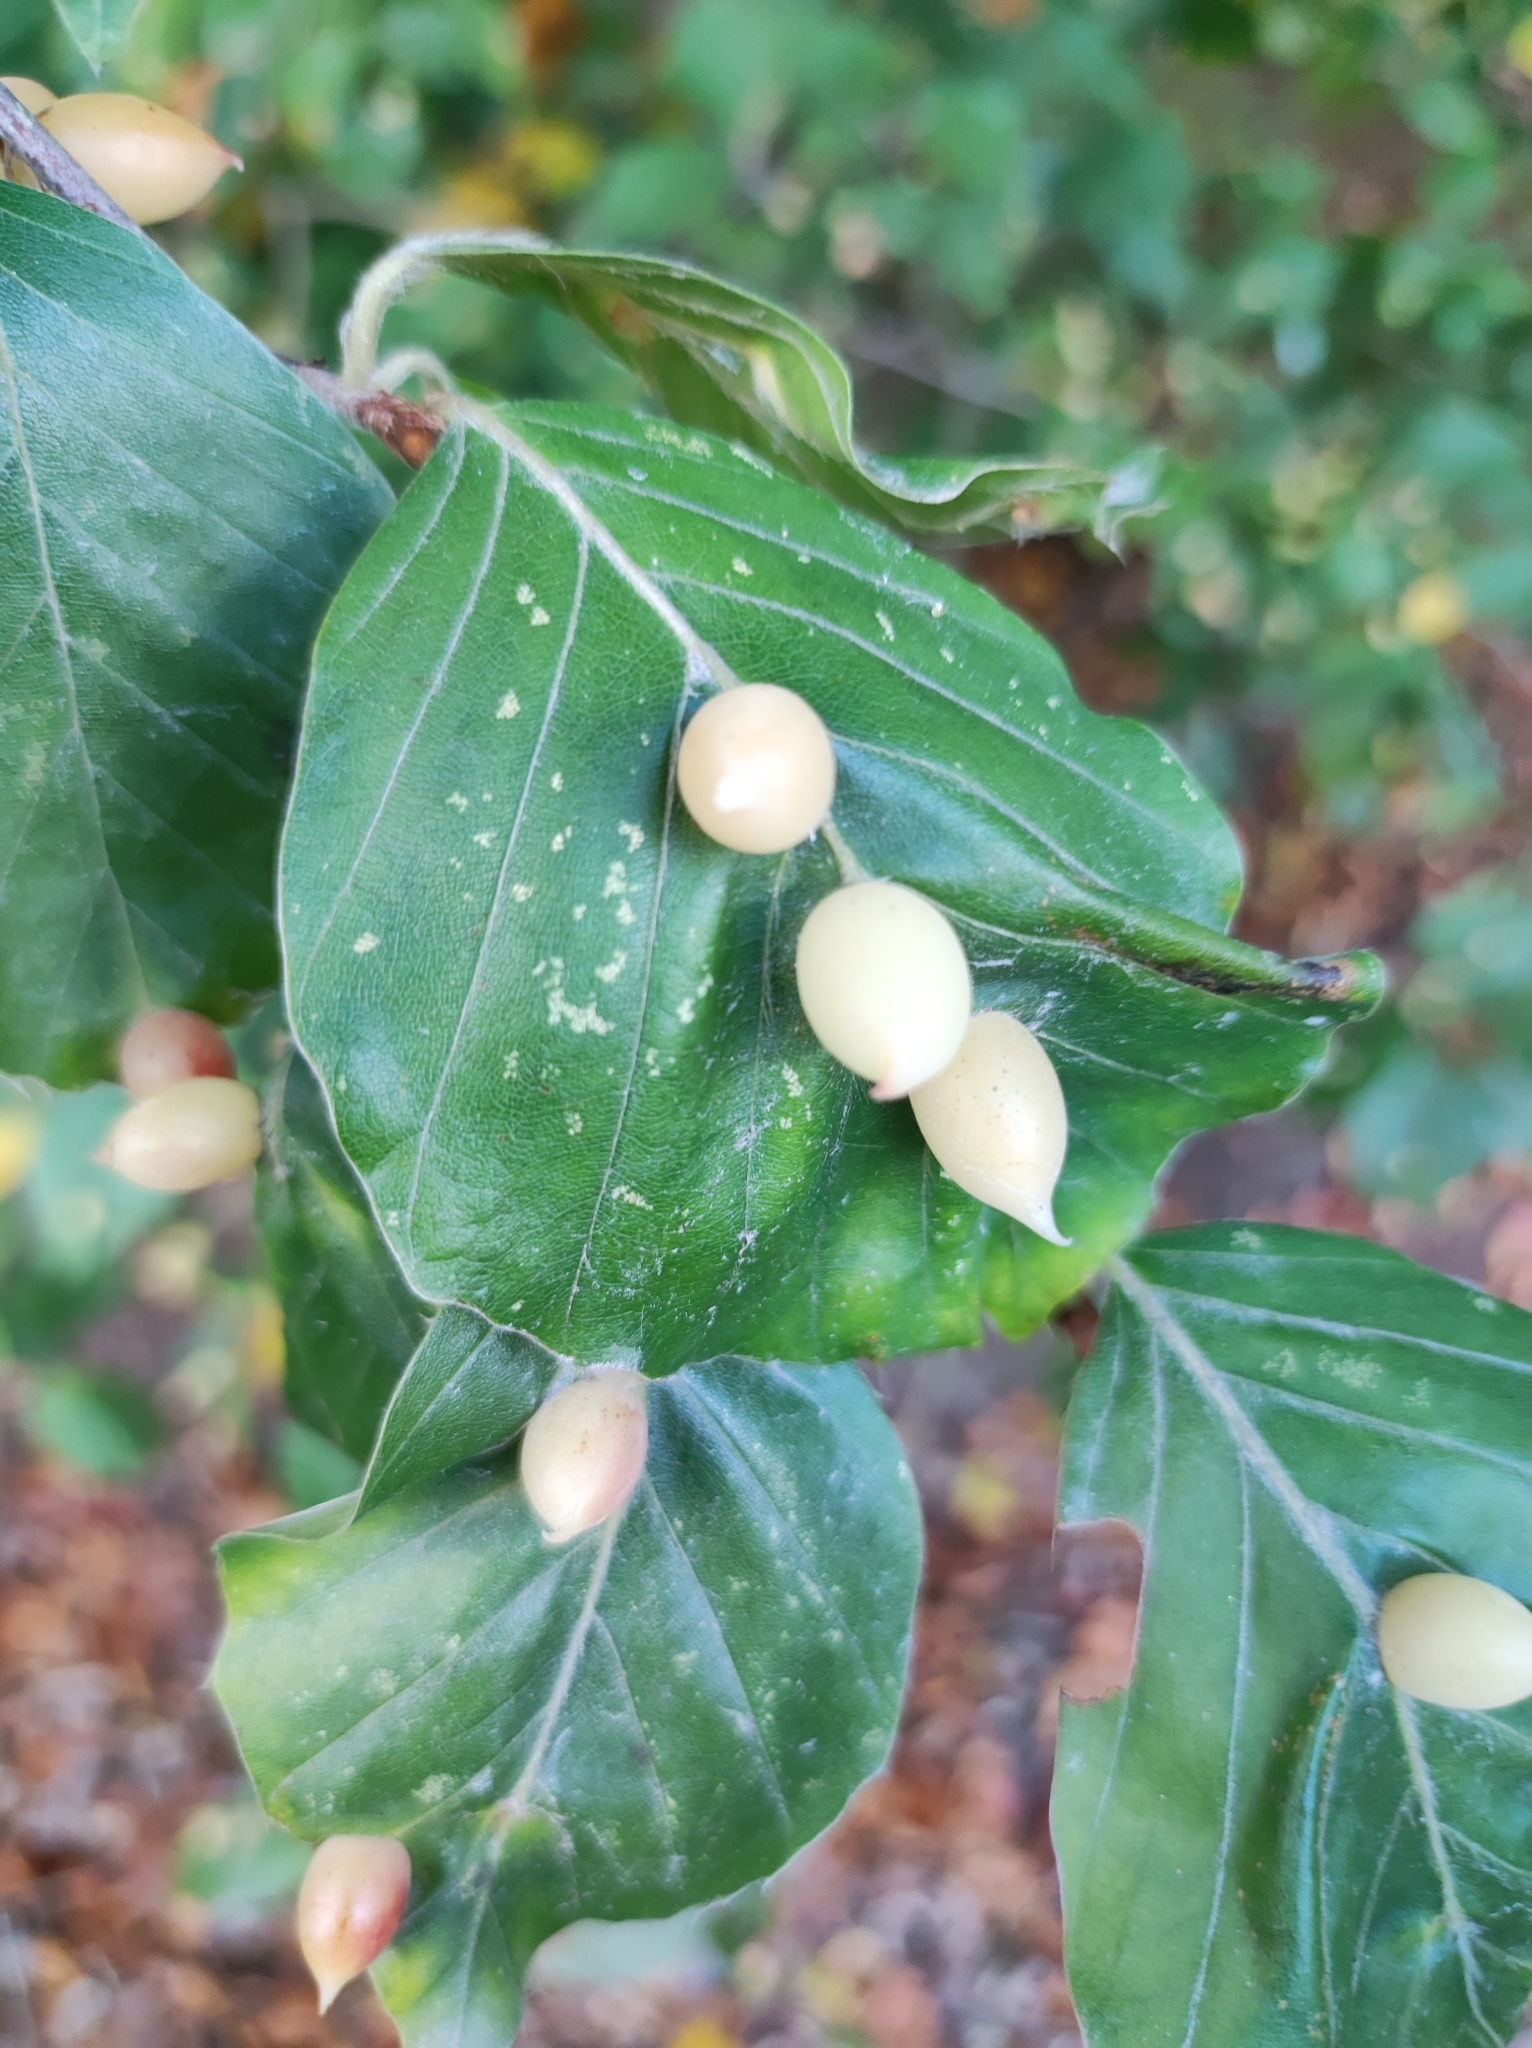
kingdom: Animalia
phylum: Arthropoda
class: Insecta
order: Diptera
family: Cecidomyiidae
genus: Mikiola
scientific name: Mikiola fagi
